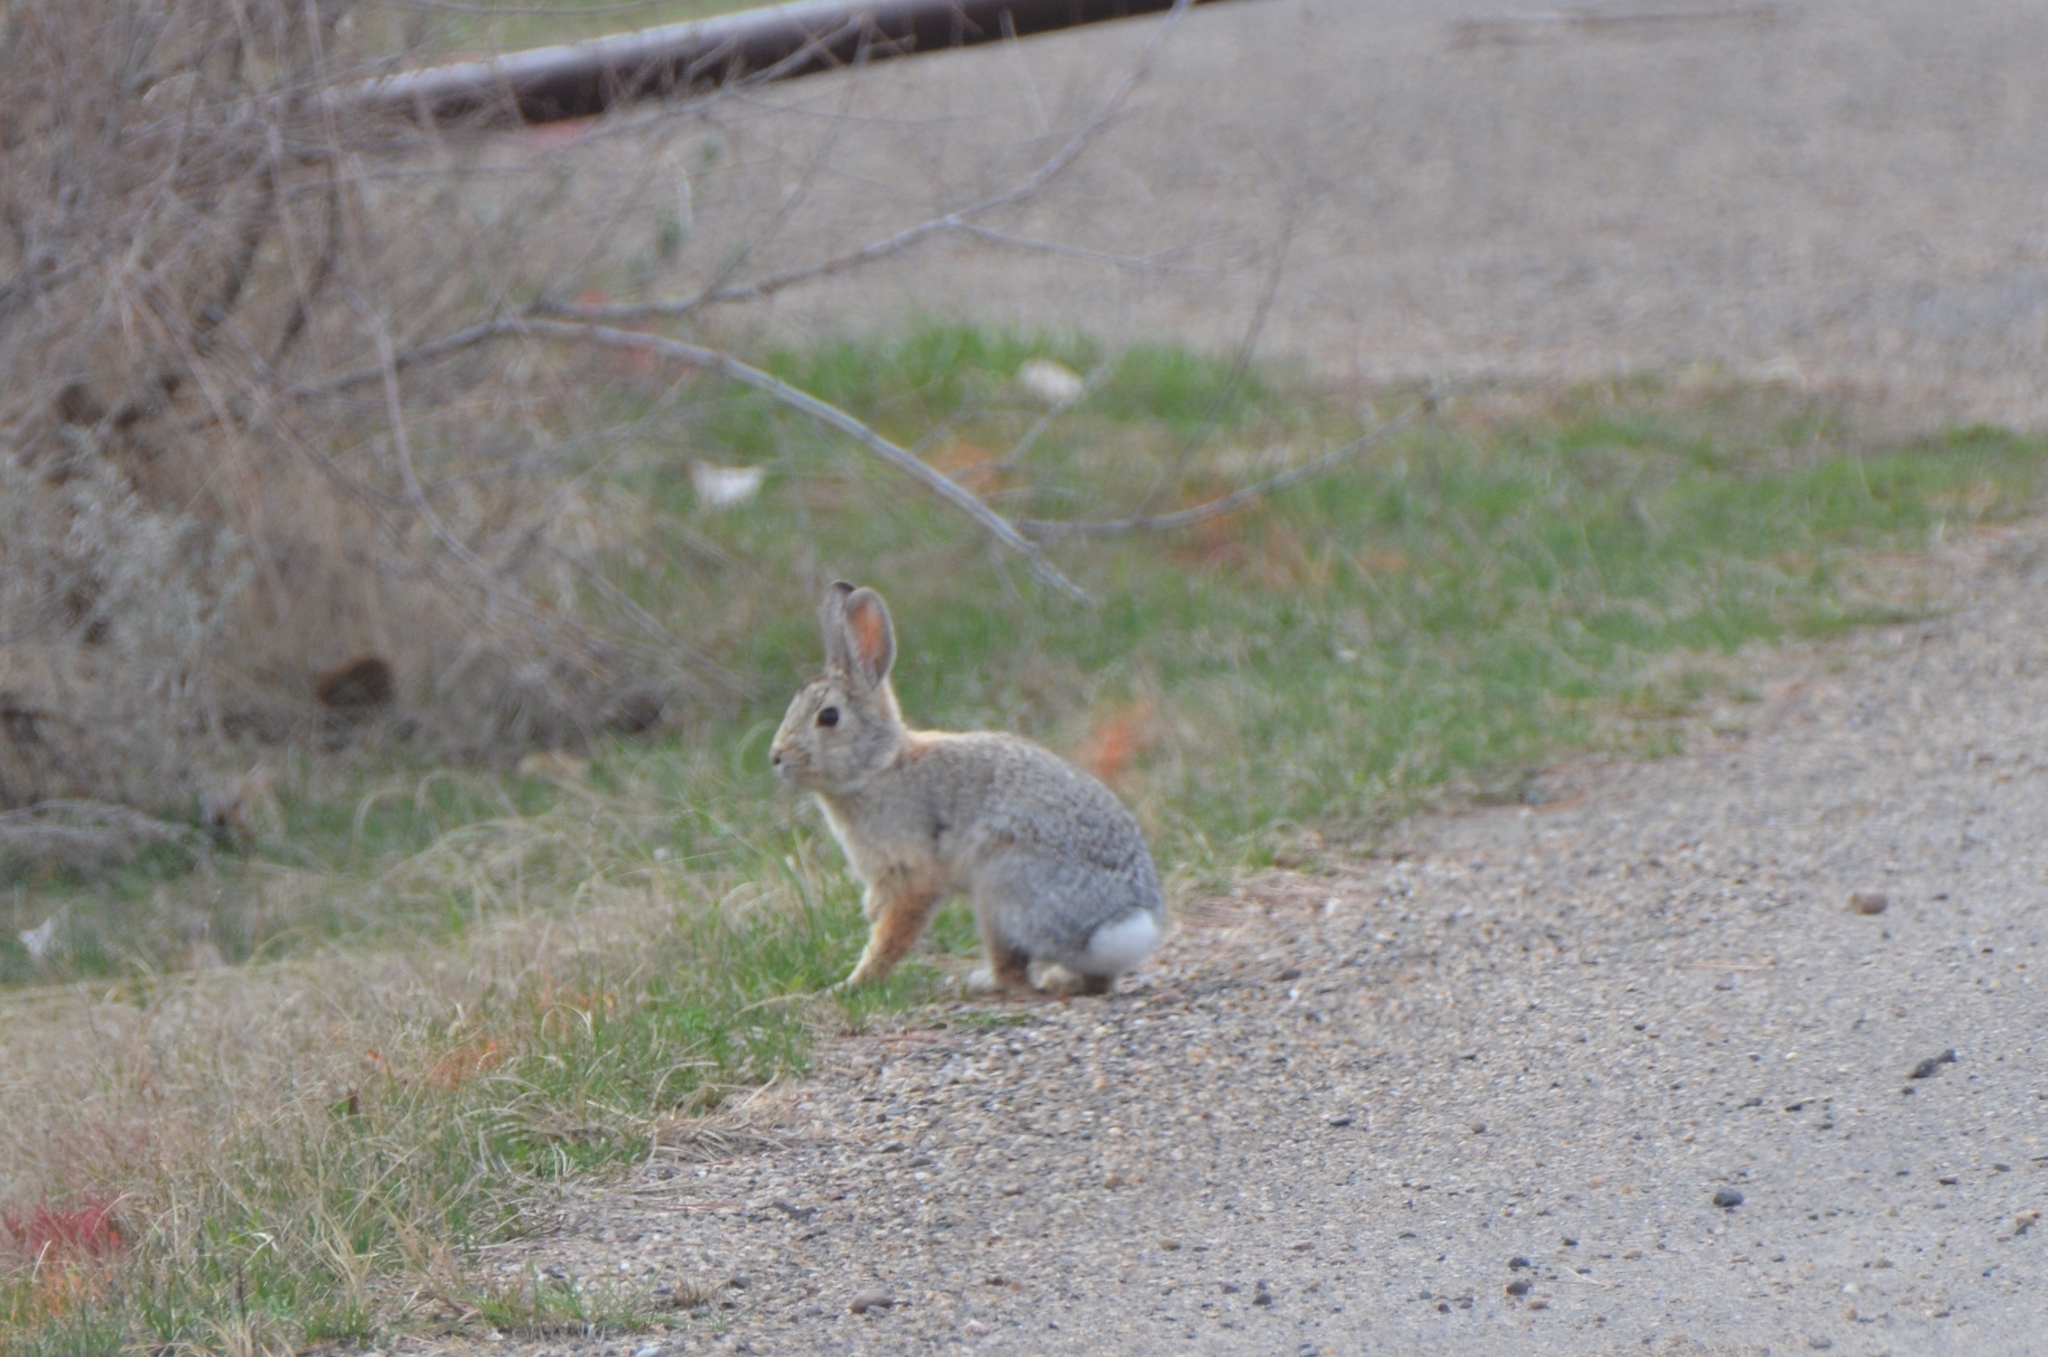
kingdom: Animalia
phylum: Chordata
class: Mammalia
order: Lagomorpha
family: Leporidae
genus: Sylvilagus
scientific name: Sylvilagus audubonii
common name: Desert cottontail
